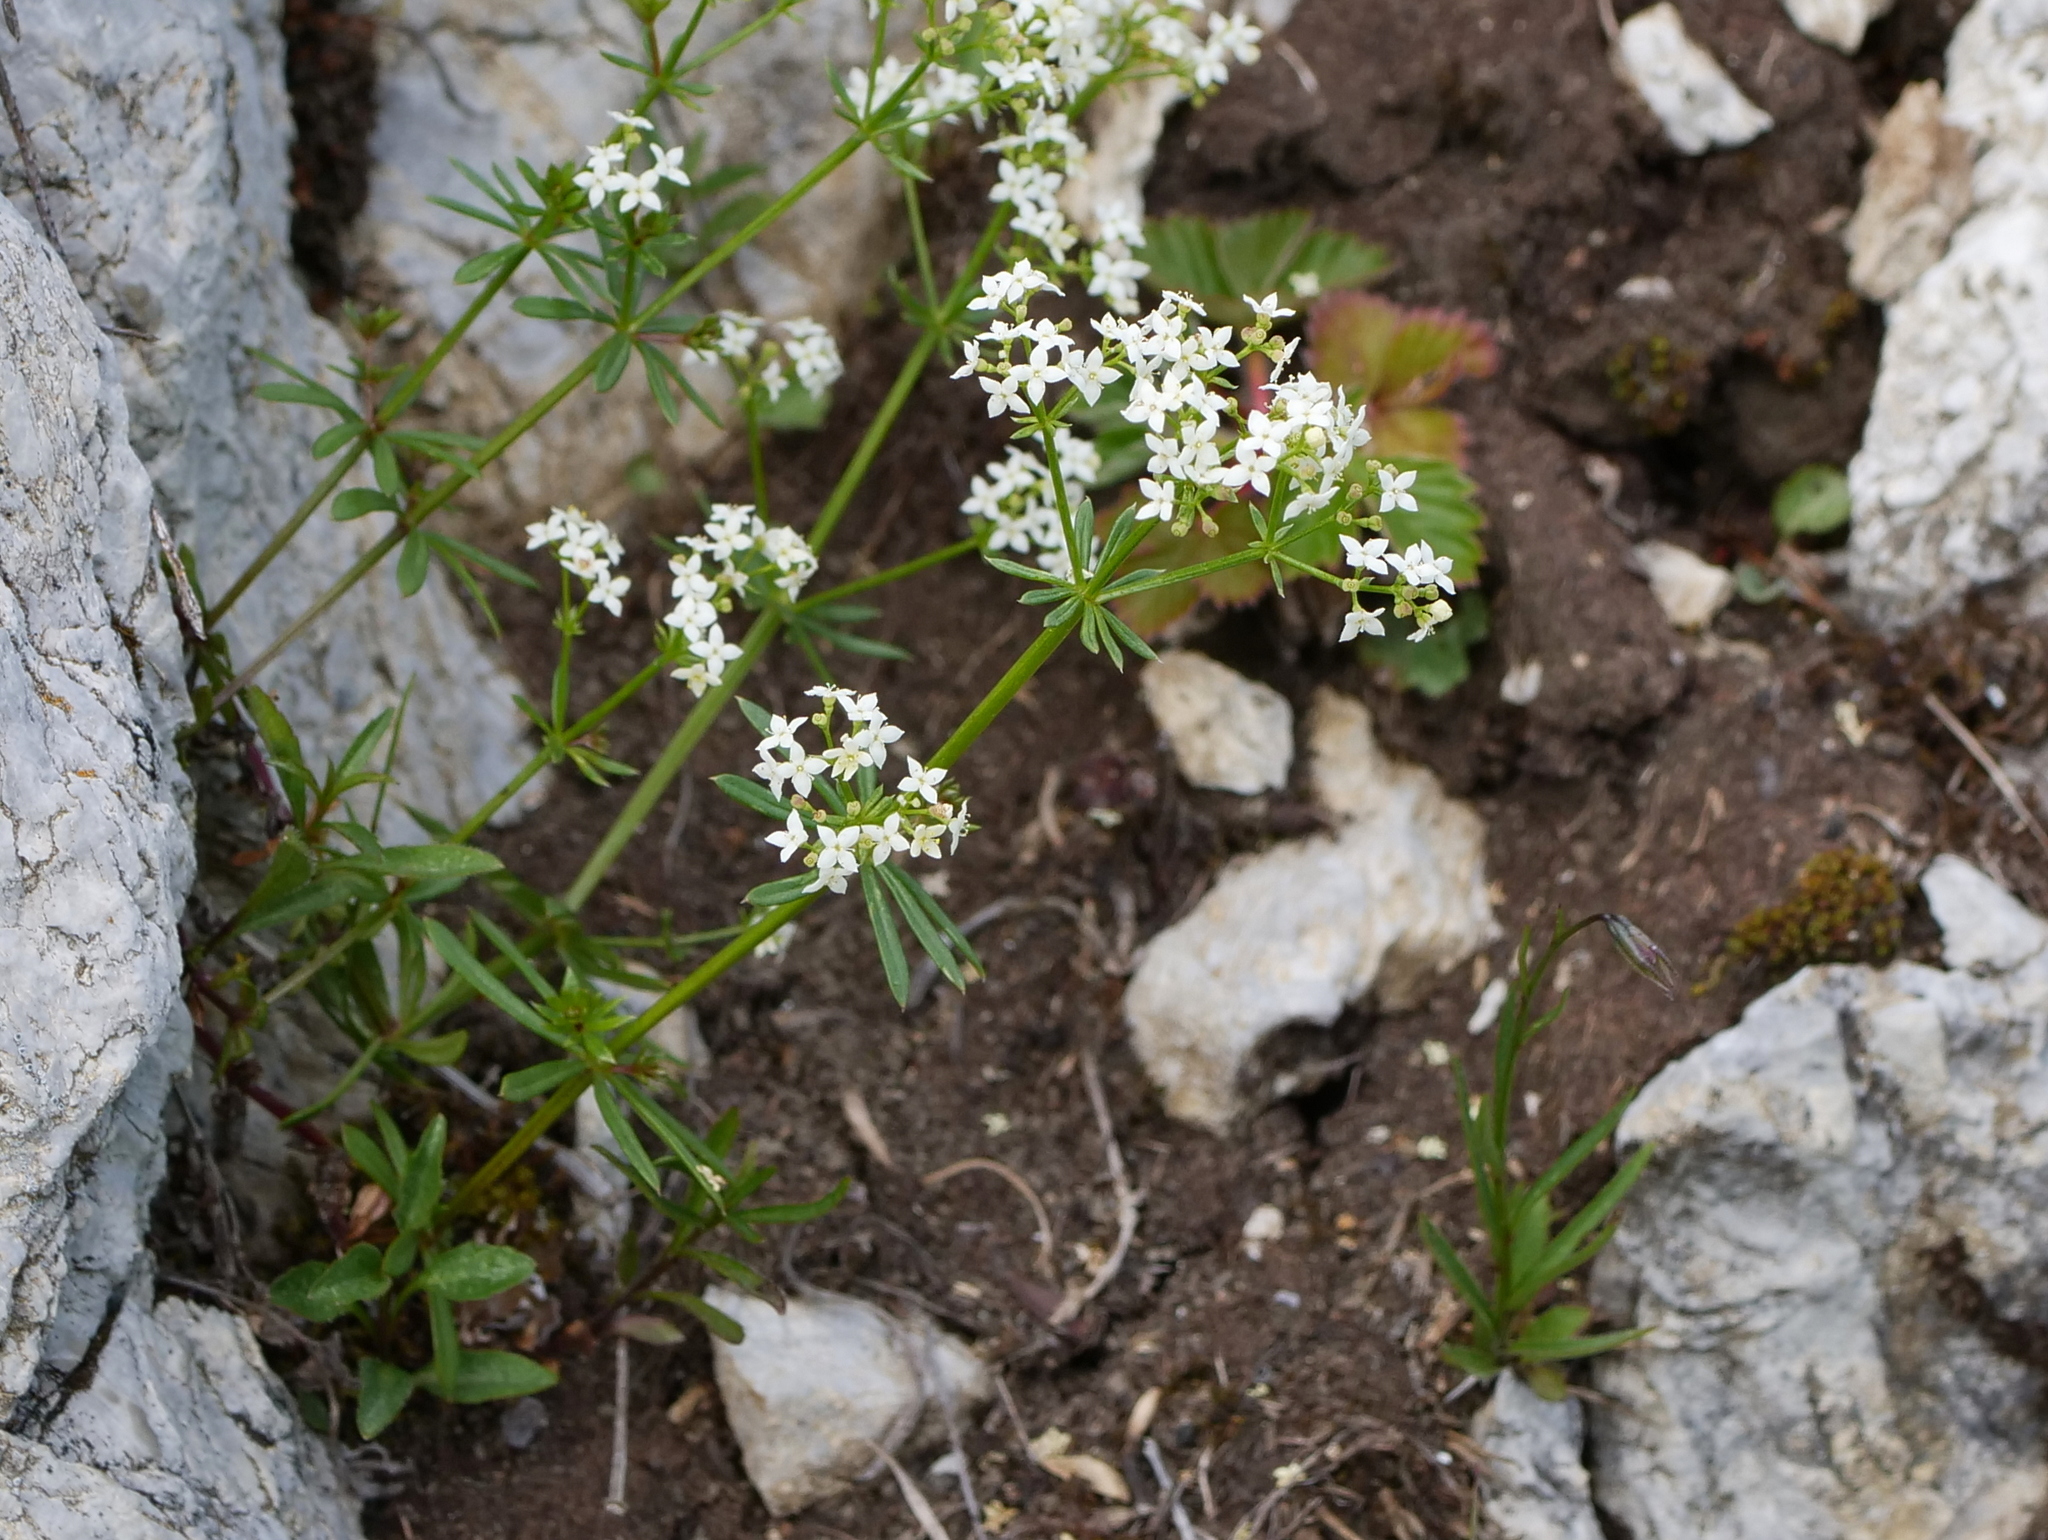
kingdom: Plantae
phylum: Tracheophyta
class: Magnoliopsida
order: Gentianales
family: Rubiaceae
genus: Galium
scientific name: Galium anisophyllon
